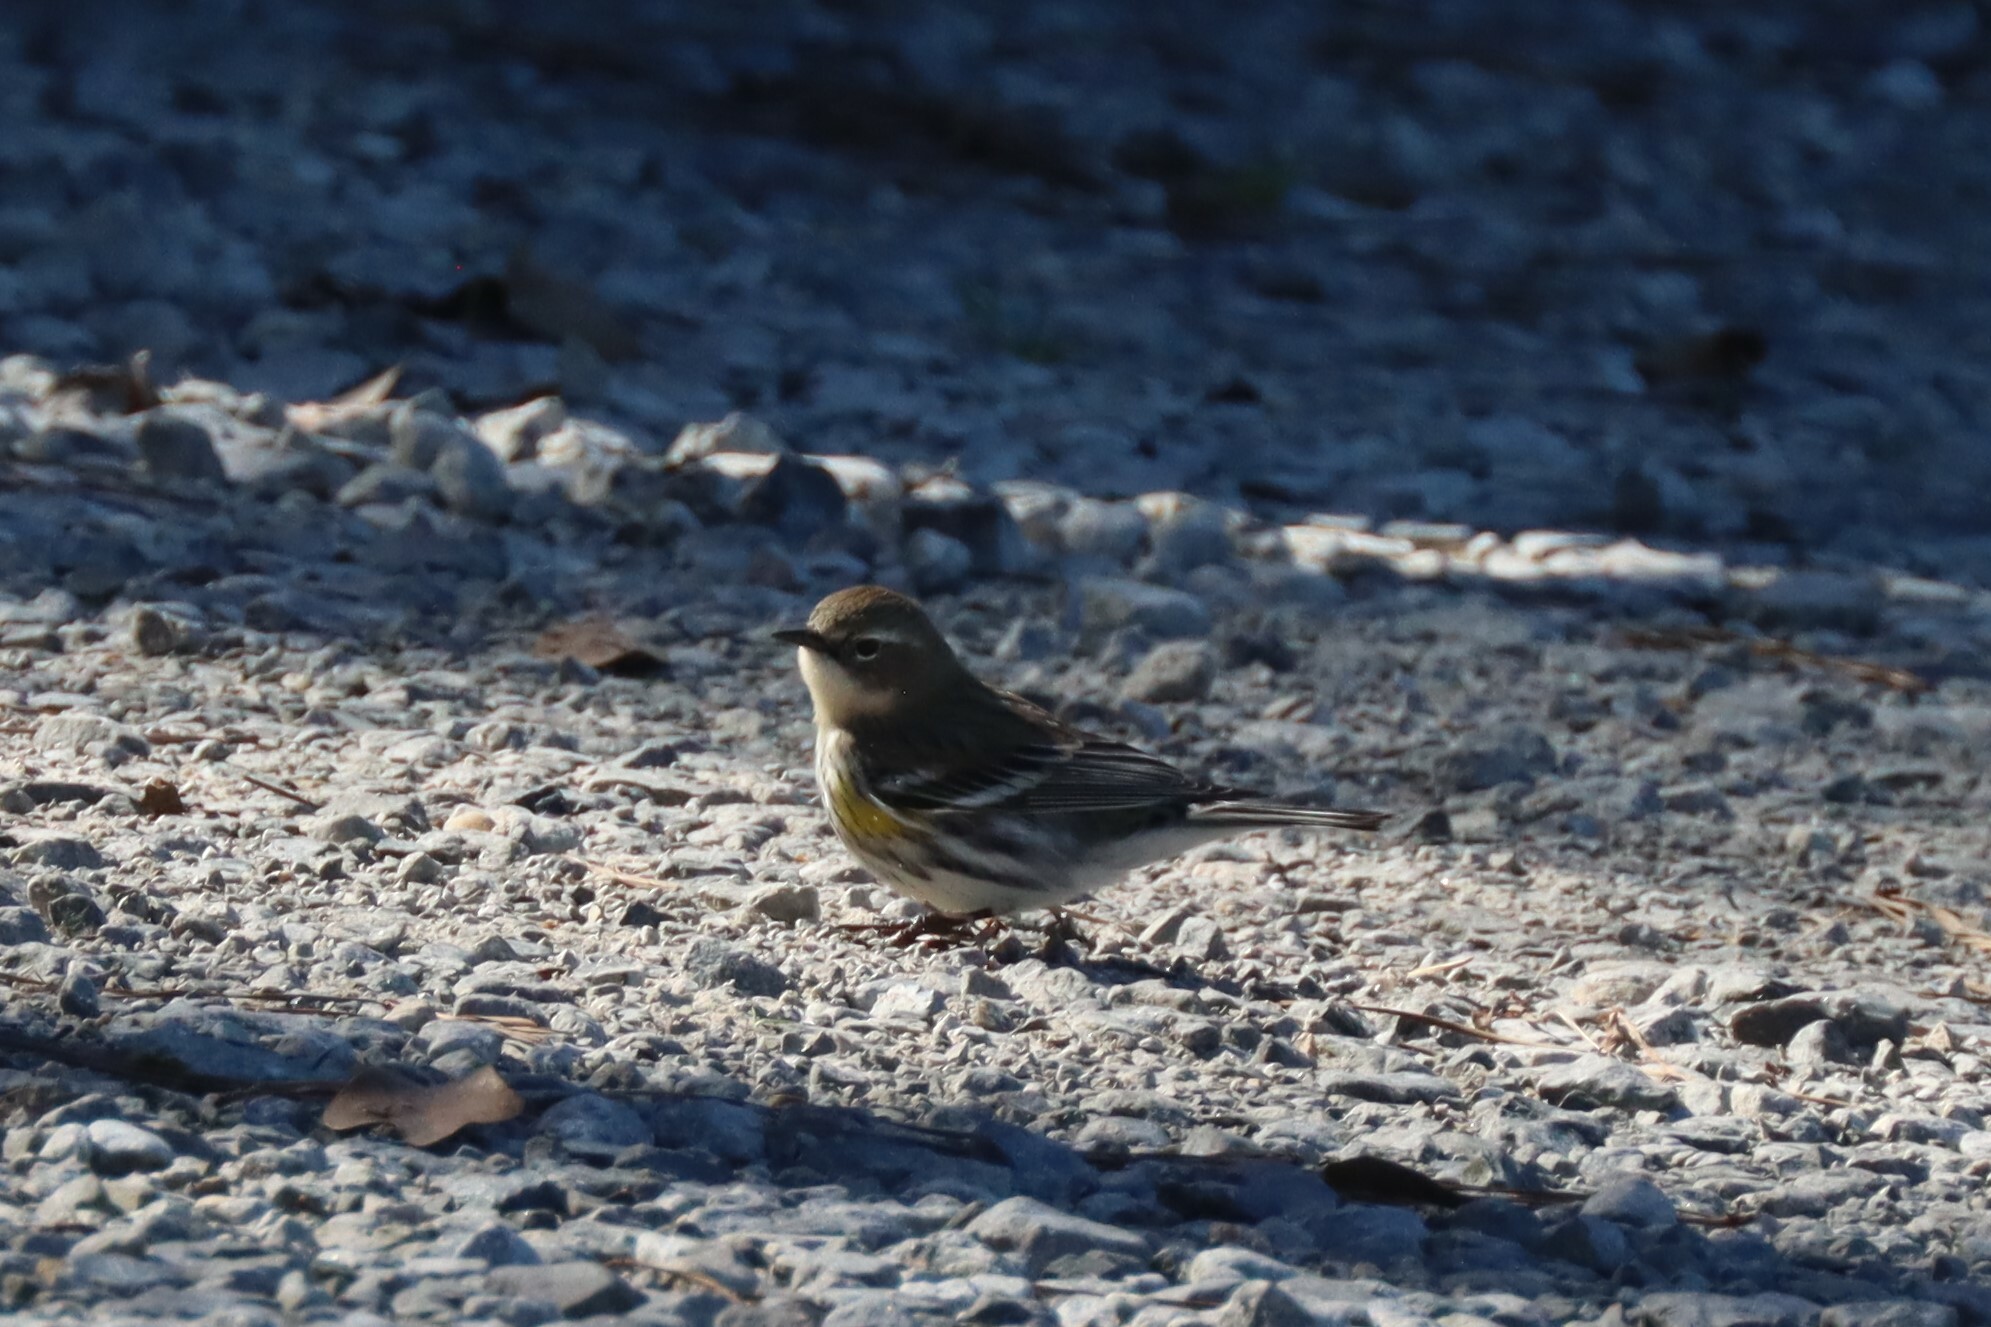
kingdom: Animalia
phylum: Chordata
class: Aves
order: Passeriformes
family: Parulidae
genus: Setophaga
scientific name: Setophaga coronata
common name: Myrtle warbler
